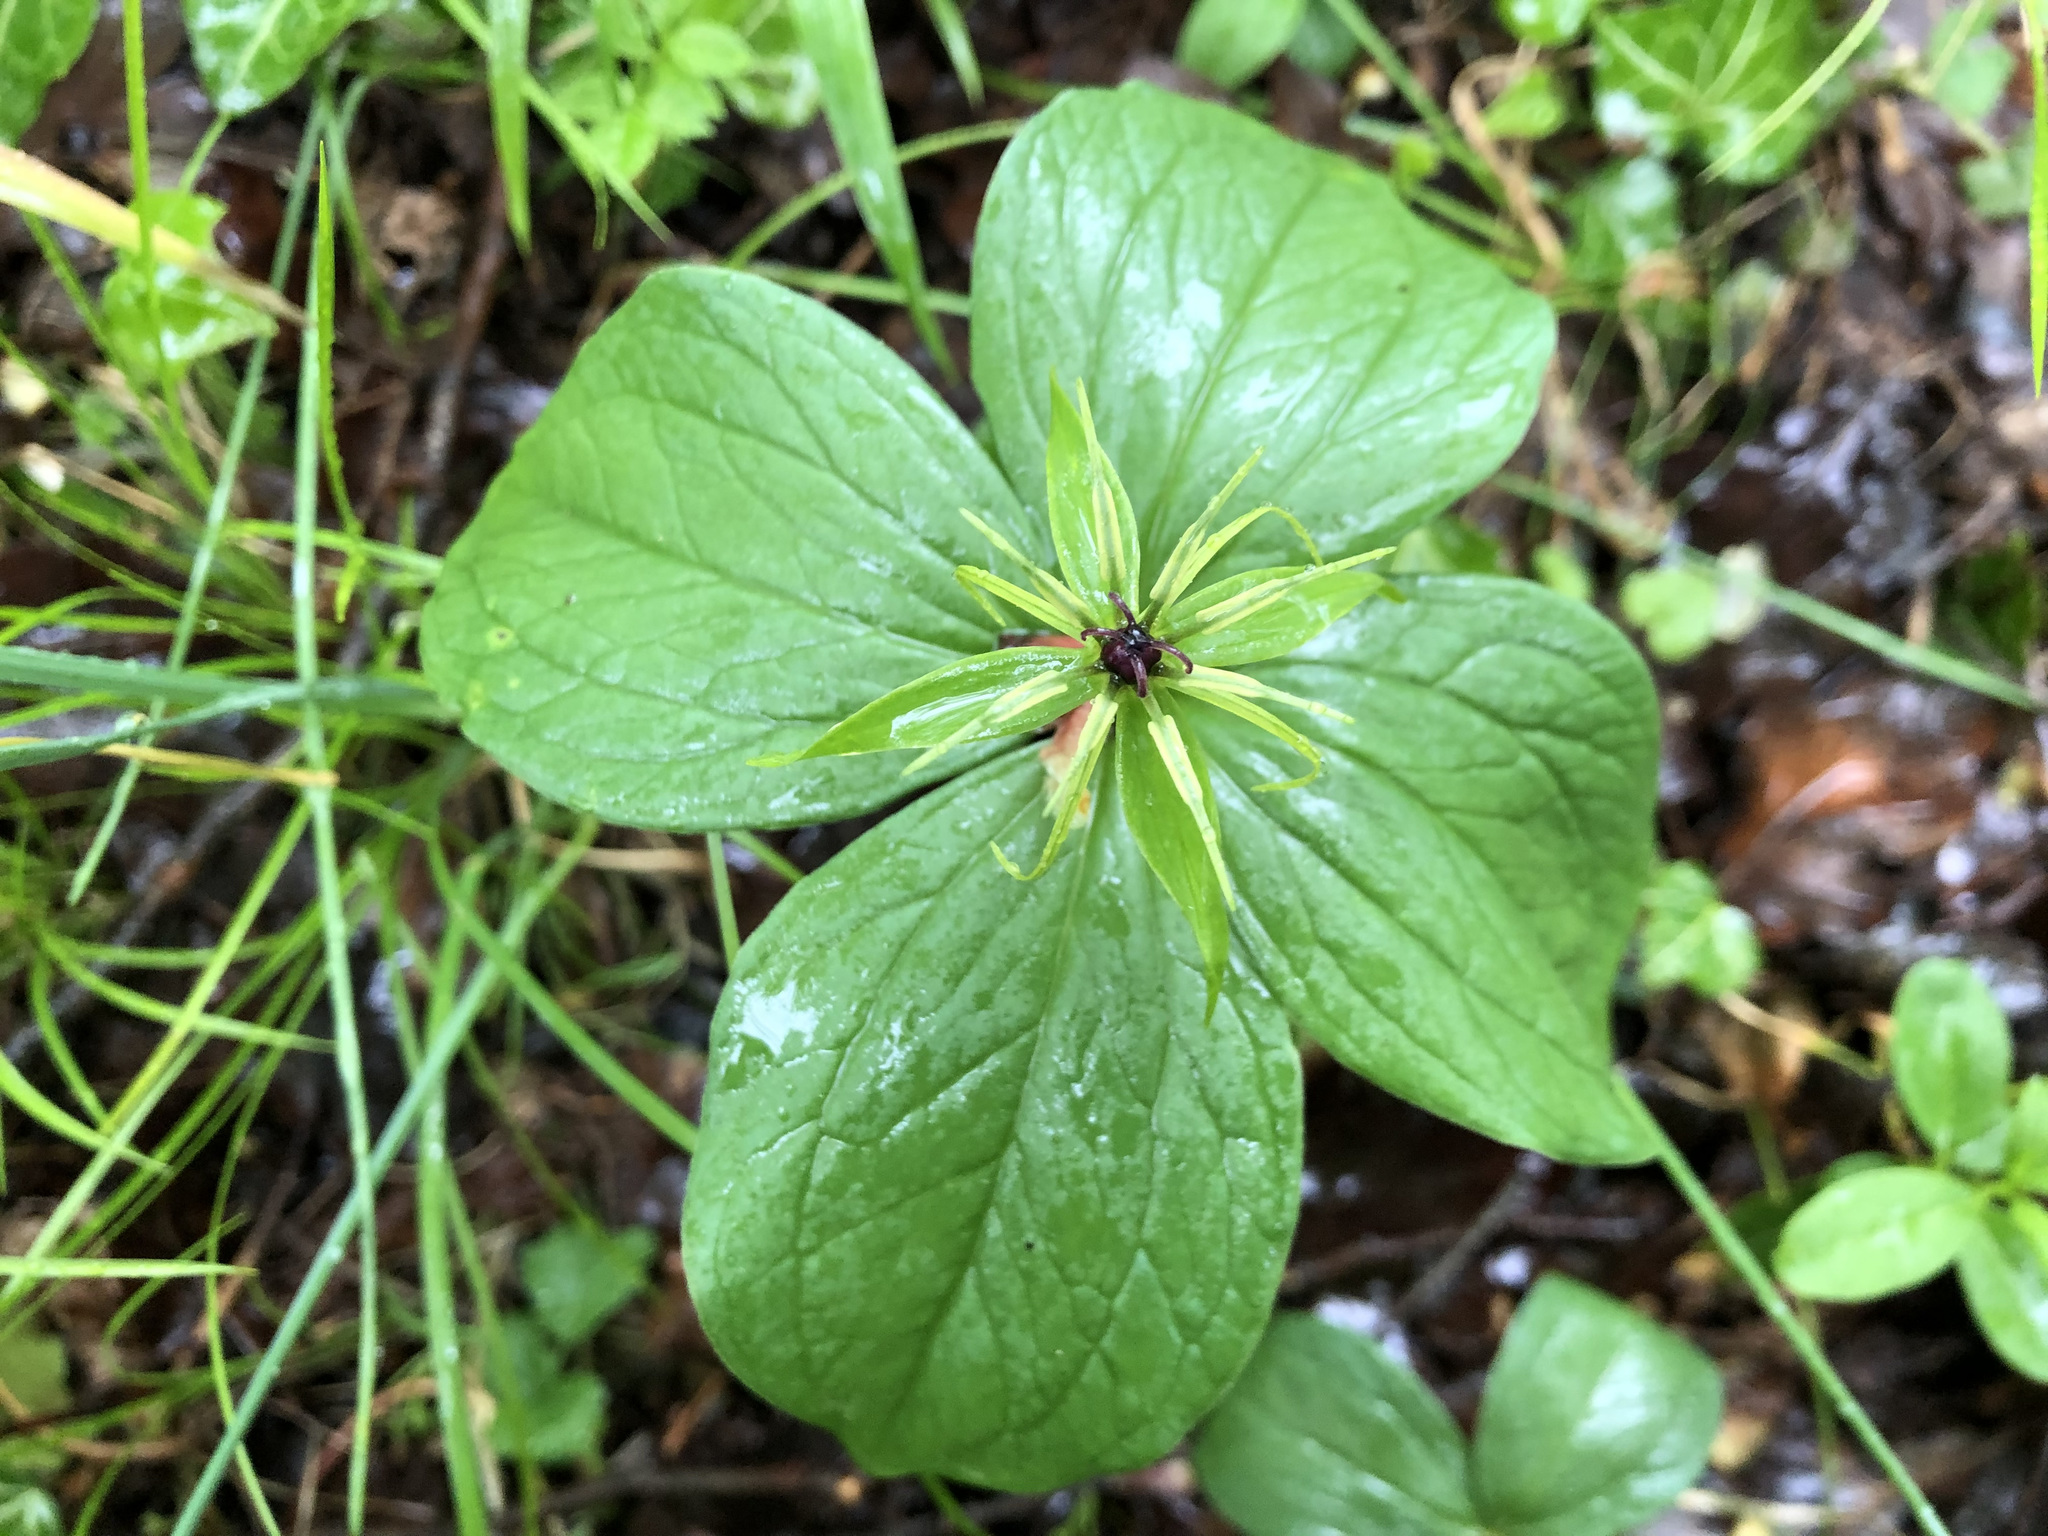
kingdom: Plantae
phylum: Tracheophyta
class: Liliopsida
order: Liliales
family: Melanthiaceae
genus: Paris
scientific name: Paris quadrifolia
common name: Herb-paris
